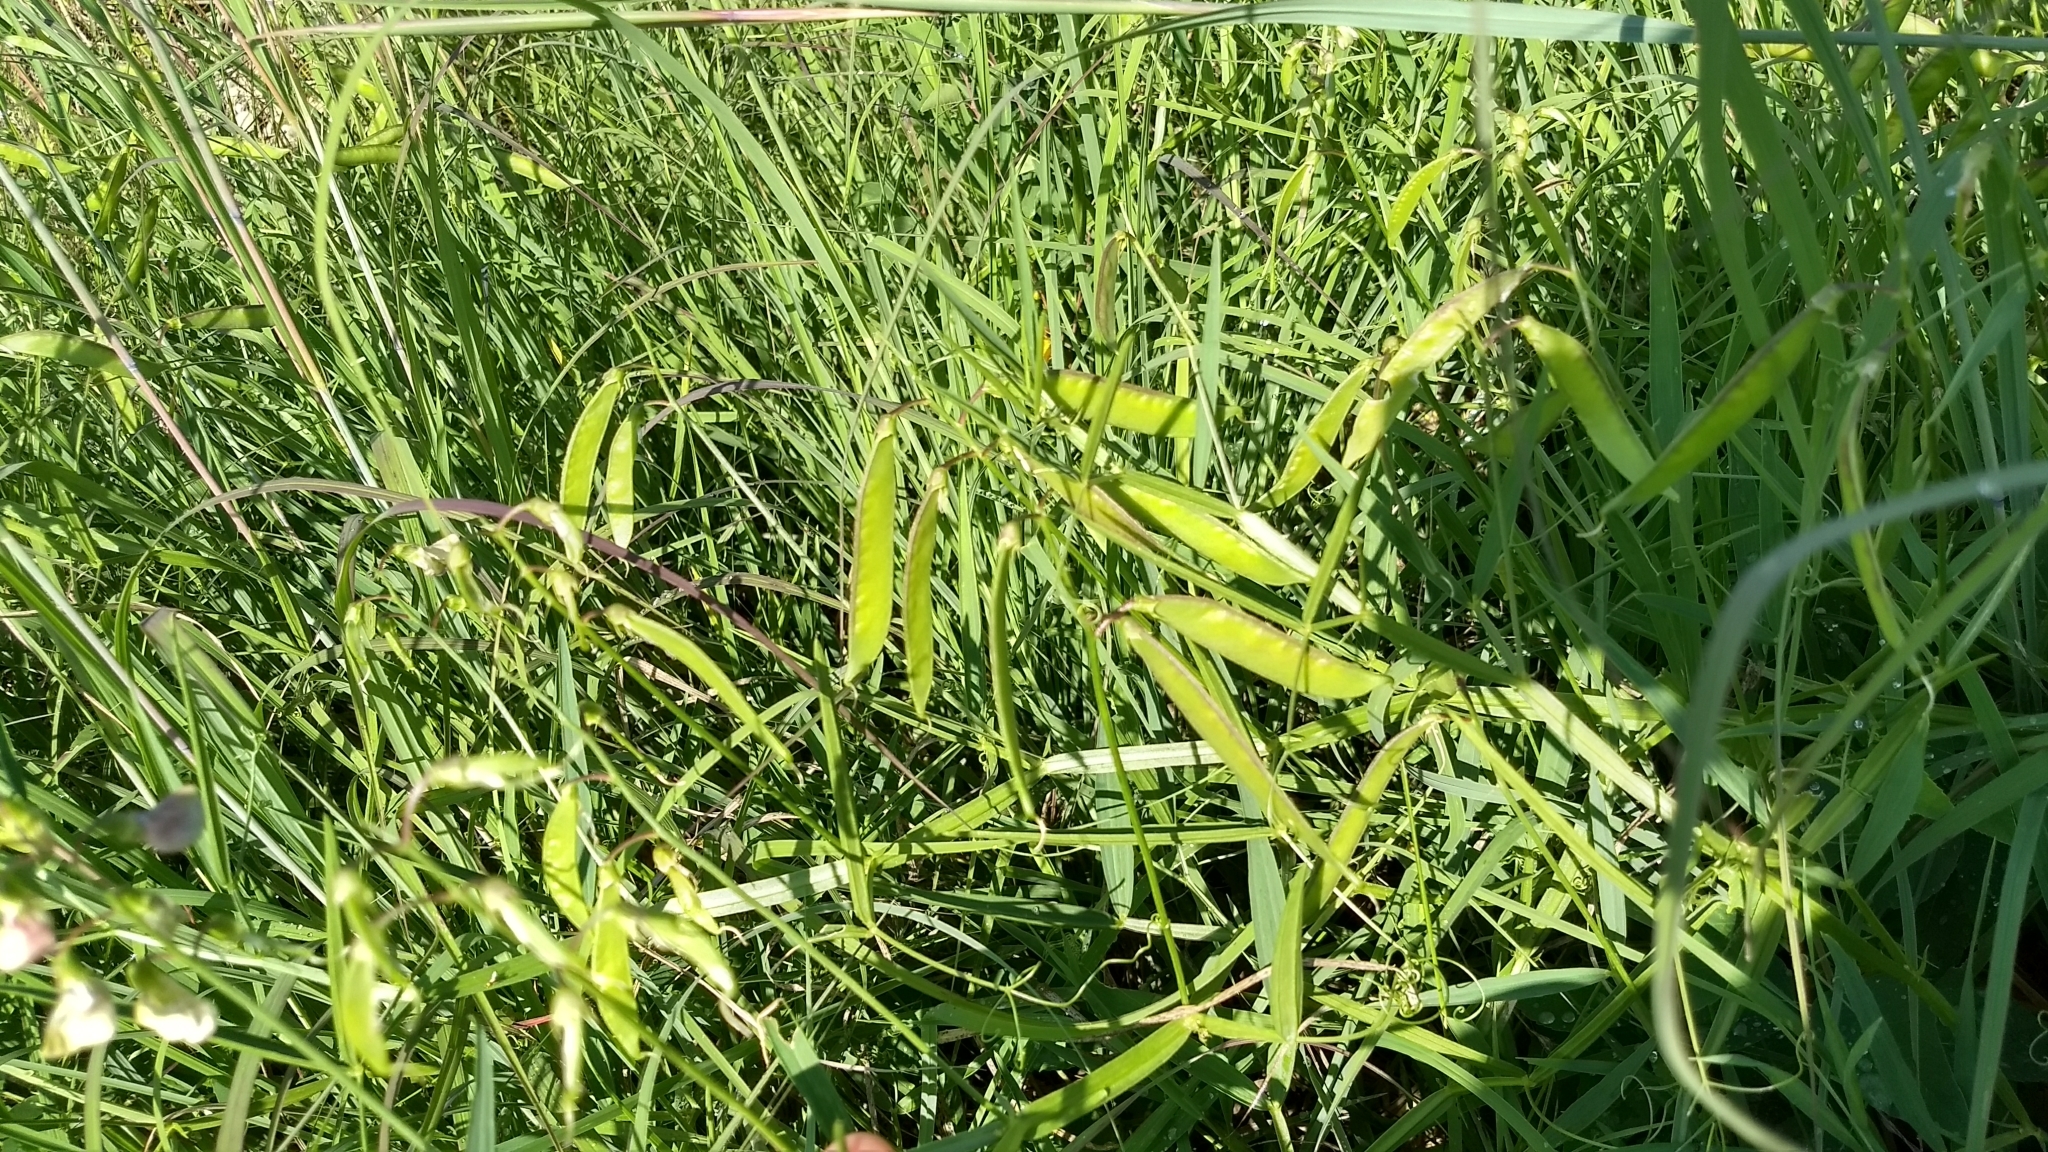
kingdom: Plantae
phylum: Tracheophyta
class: Magnoliopsida
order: Fabales
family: Fabaceae
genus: Lathyrus
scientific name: Lathyrus latifolius
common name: Perennial pea
